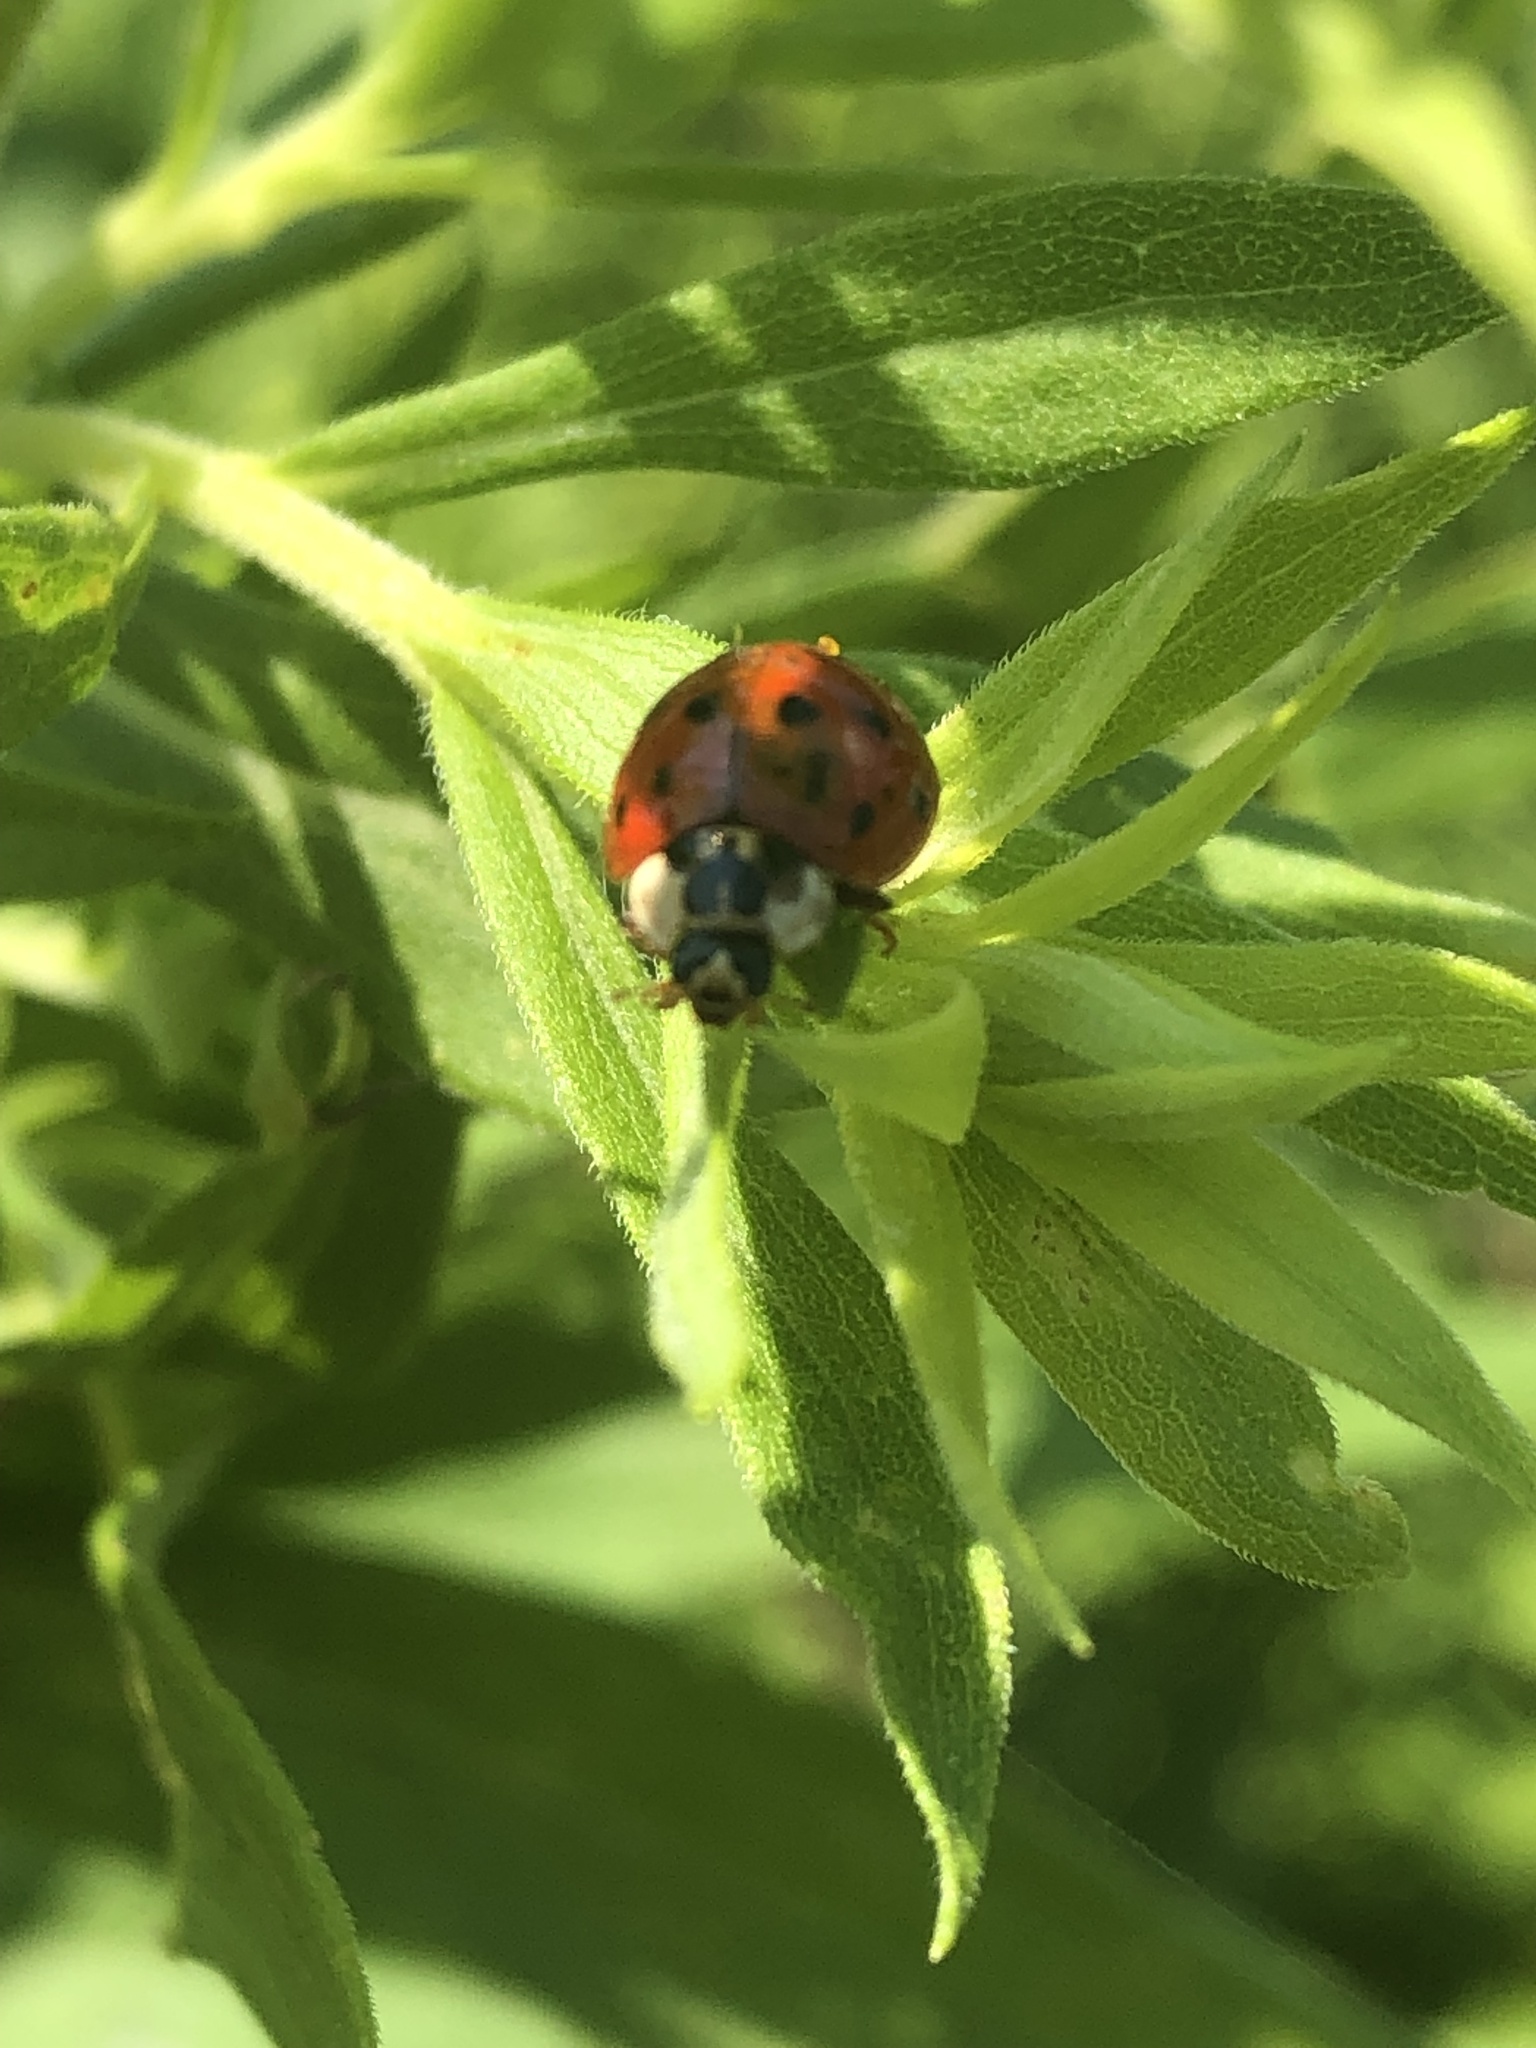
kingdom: Animalia
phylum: Arthropoda
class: Insecta
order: Coleoptera
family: Coccinellidae
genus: Harmonia
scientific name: Harmonia axyridis
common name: Harlequin ladybird
